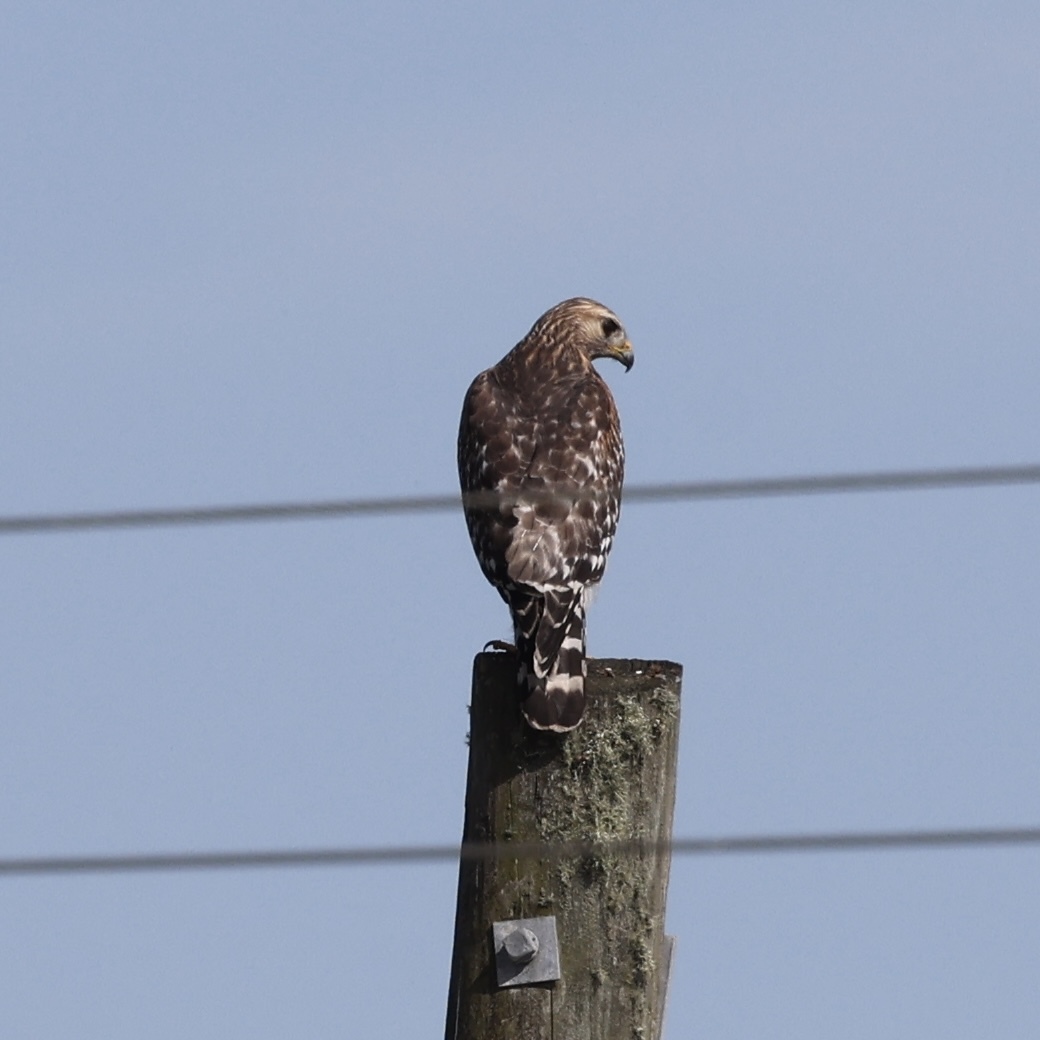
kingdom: Animalia
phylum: Chordata
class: Aves
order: Accipitriformes
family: Accipitridae
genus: Buteo
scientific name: Buteo lineatus
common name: Red-shouldered hawk
